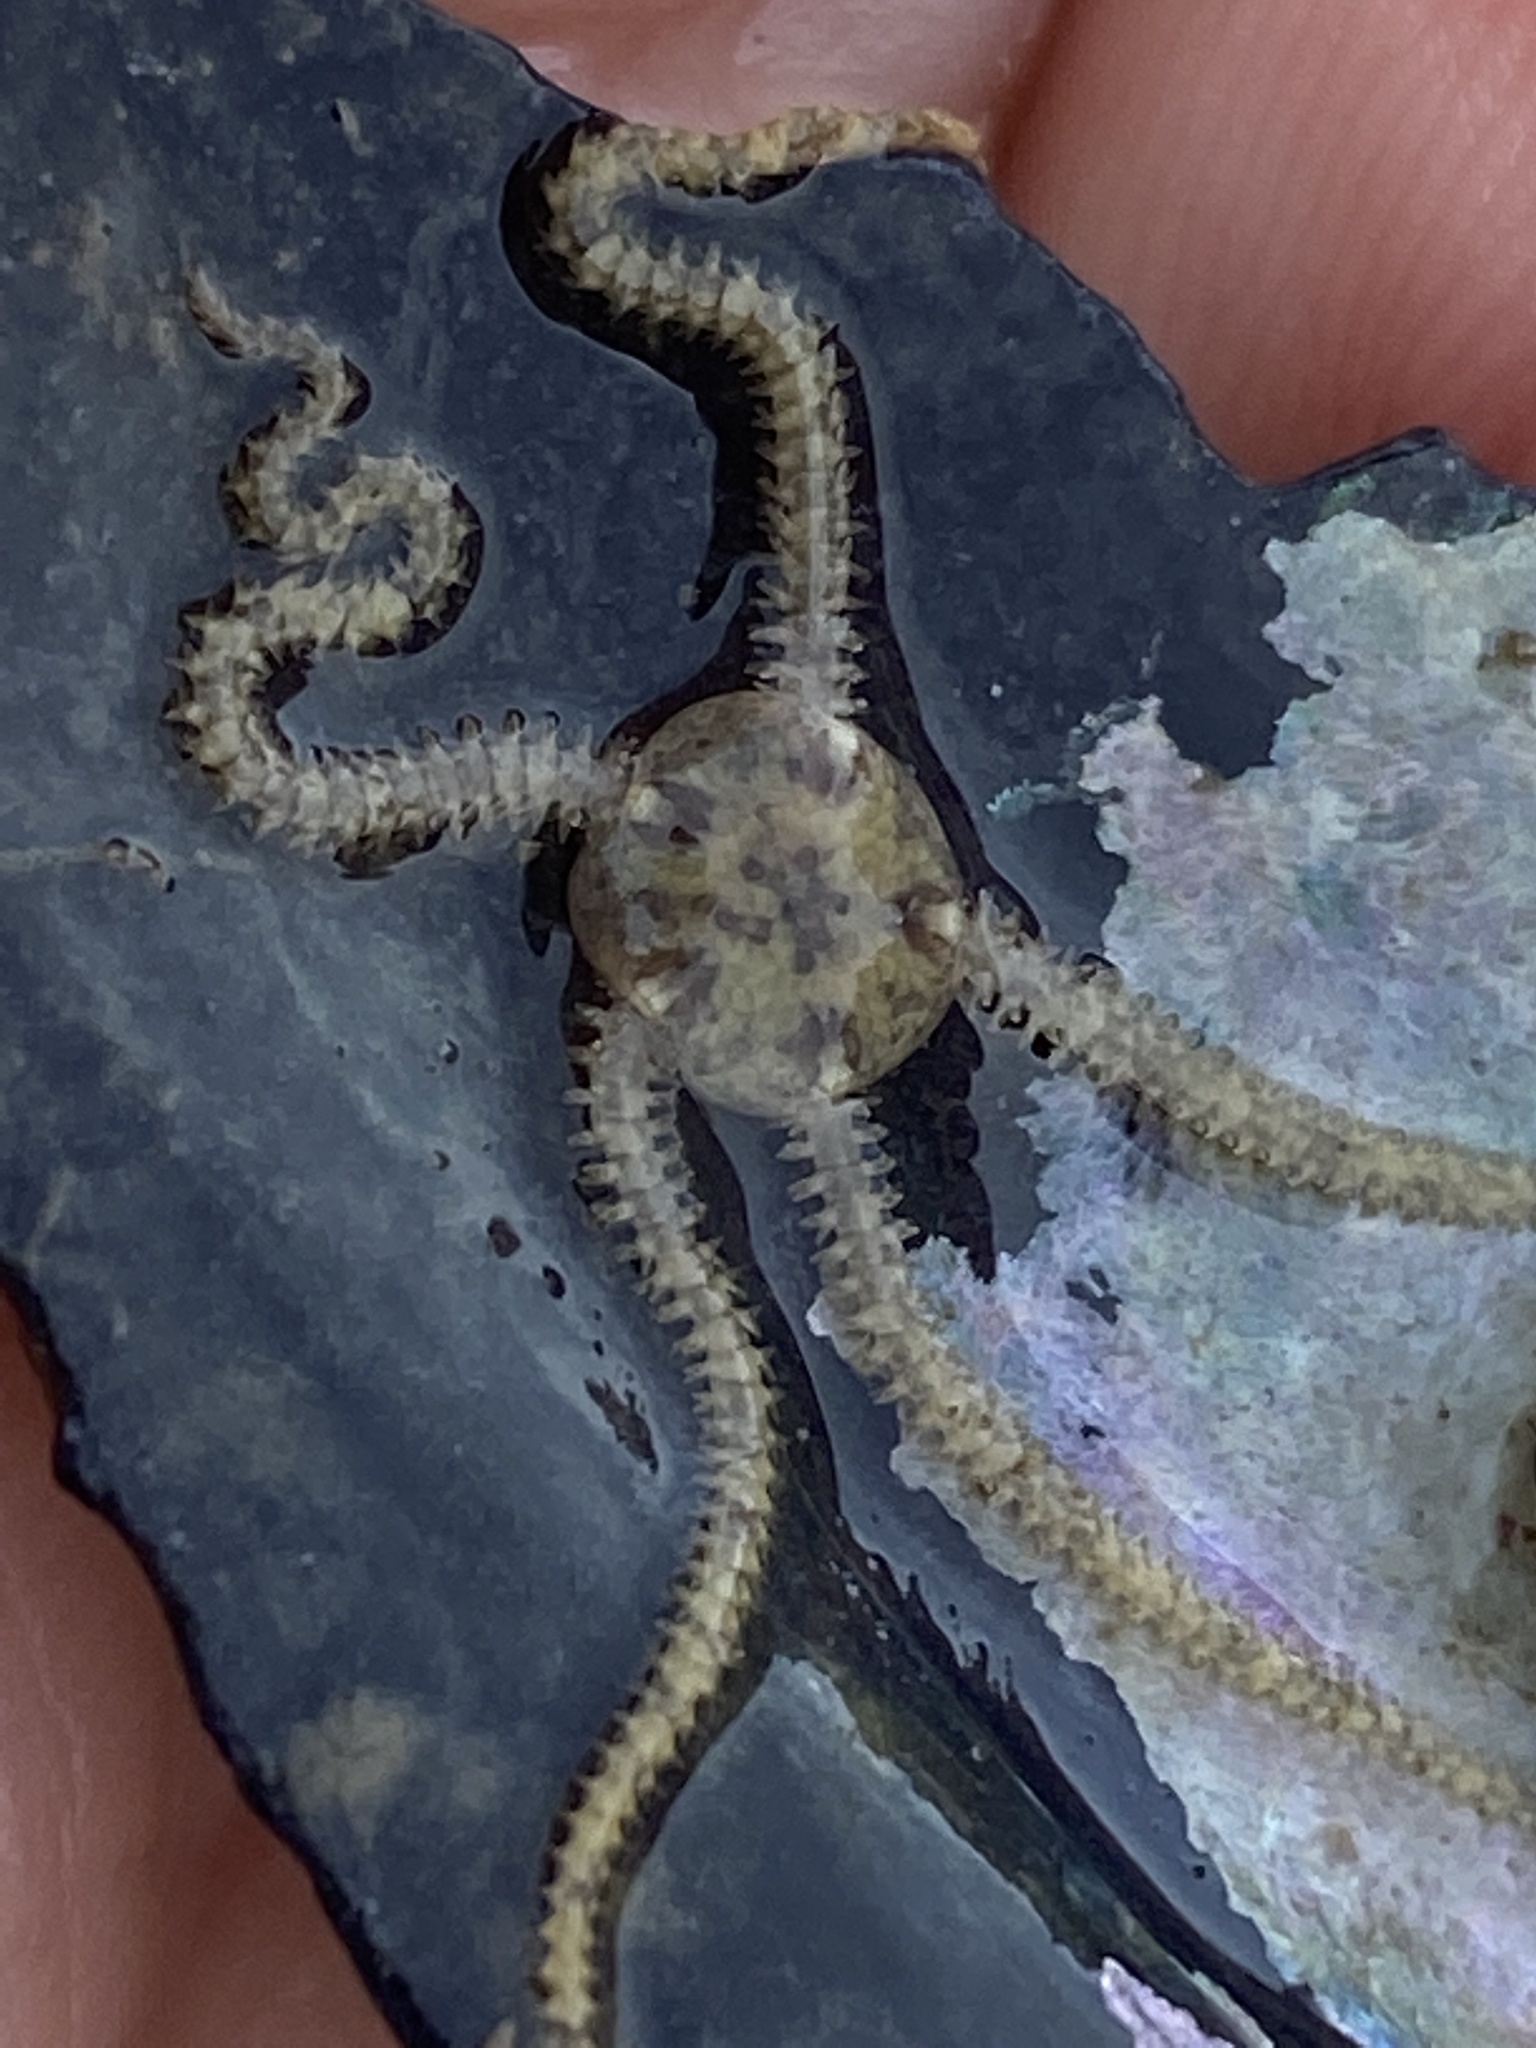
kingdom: Animalia
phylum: Echinodermata
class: Ophiuroidea
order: Amphilepidida
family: Amphiuridae
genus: Amphipholis
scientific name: Amphipholis squamata
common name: Brooding snake star
